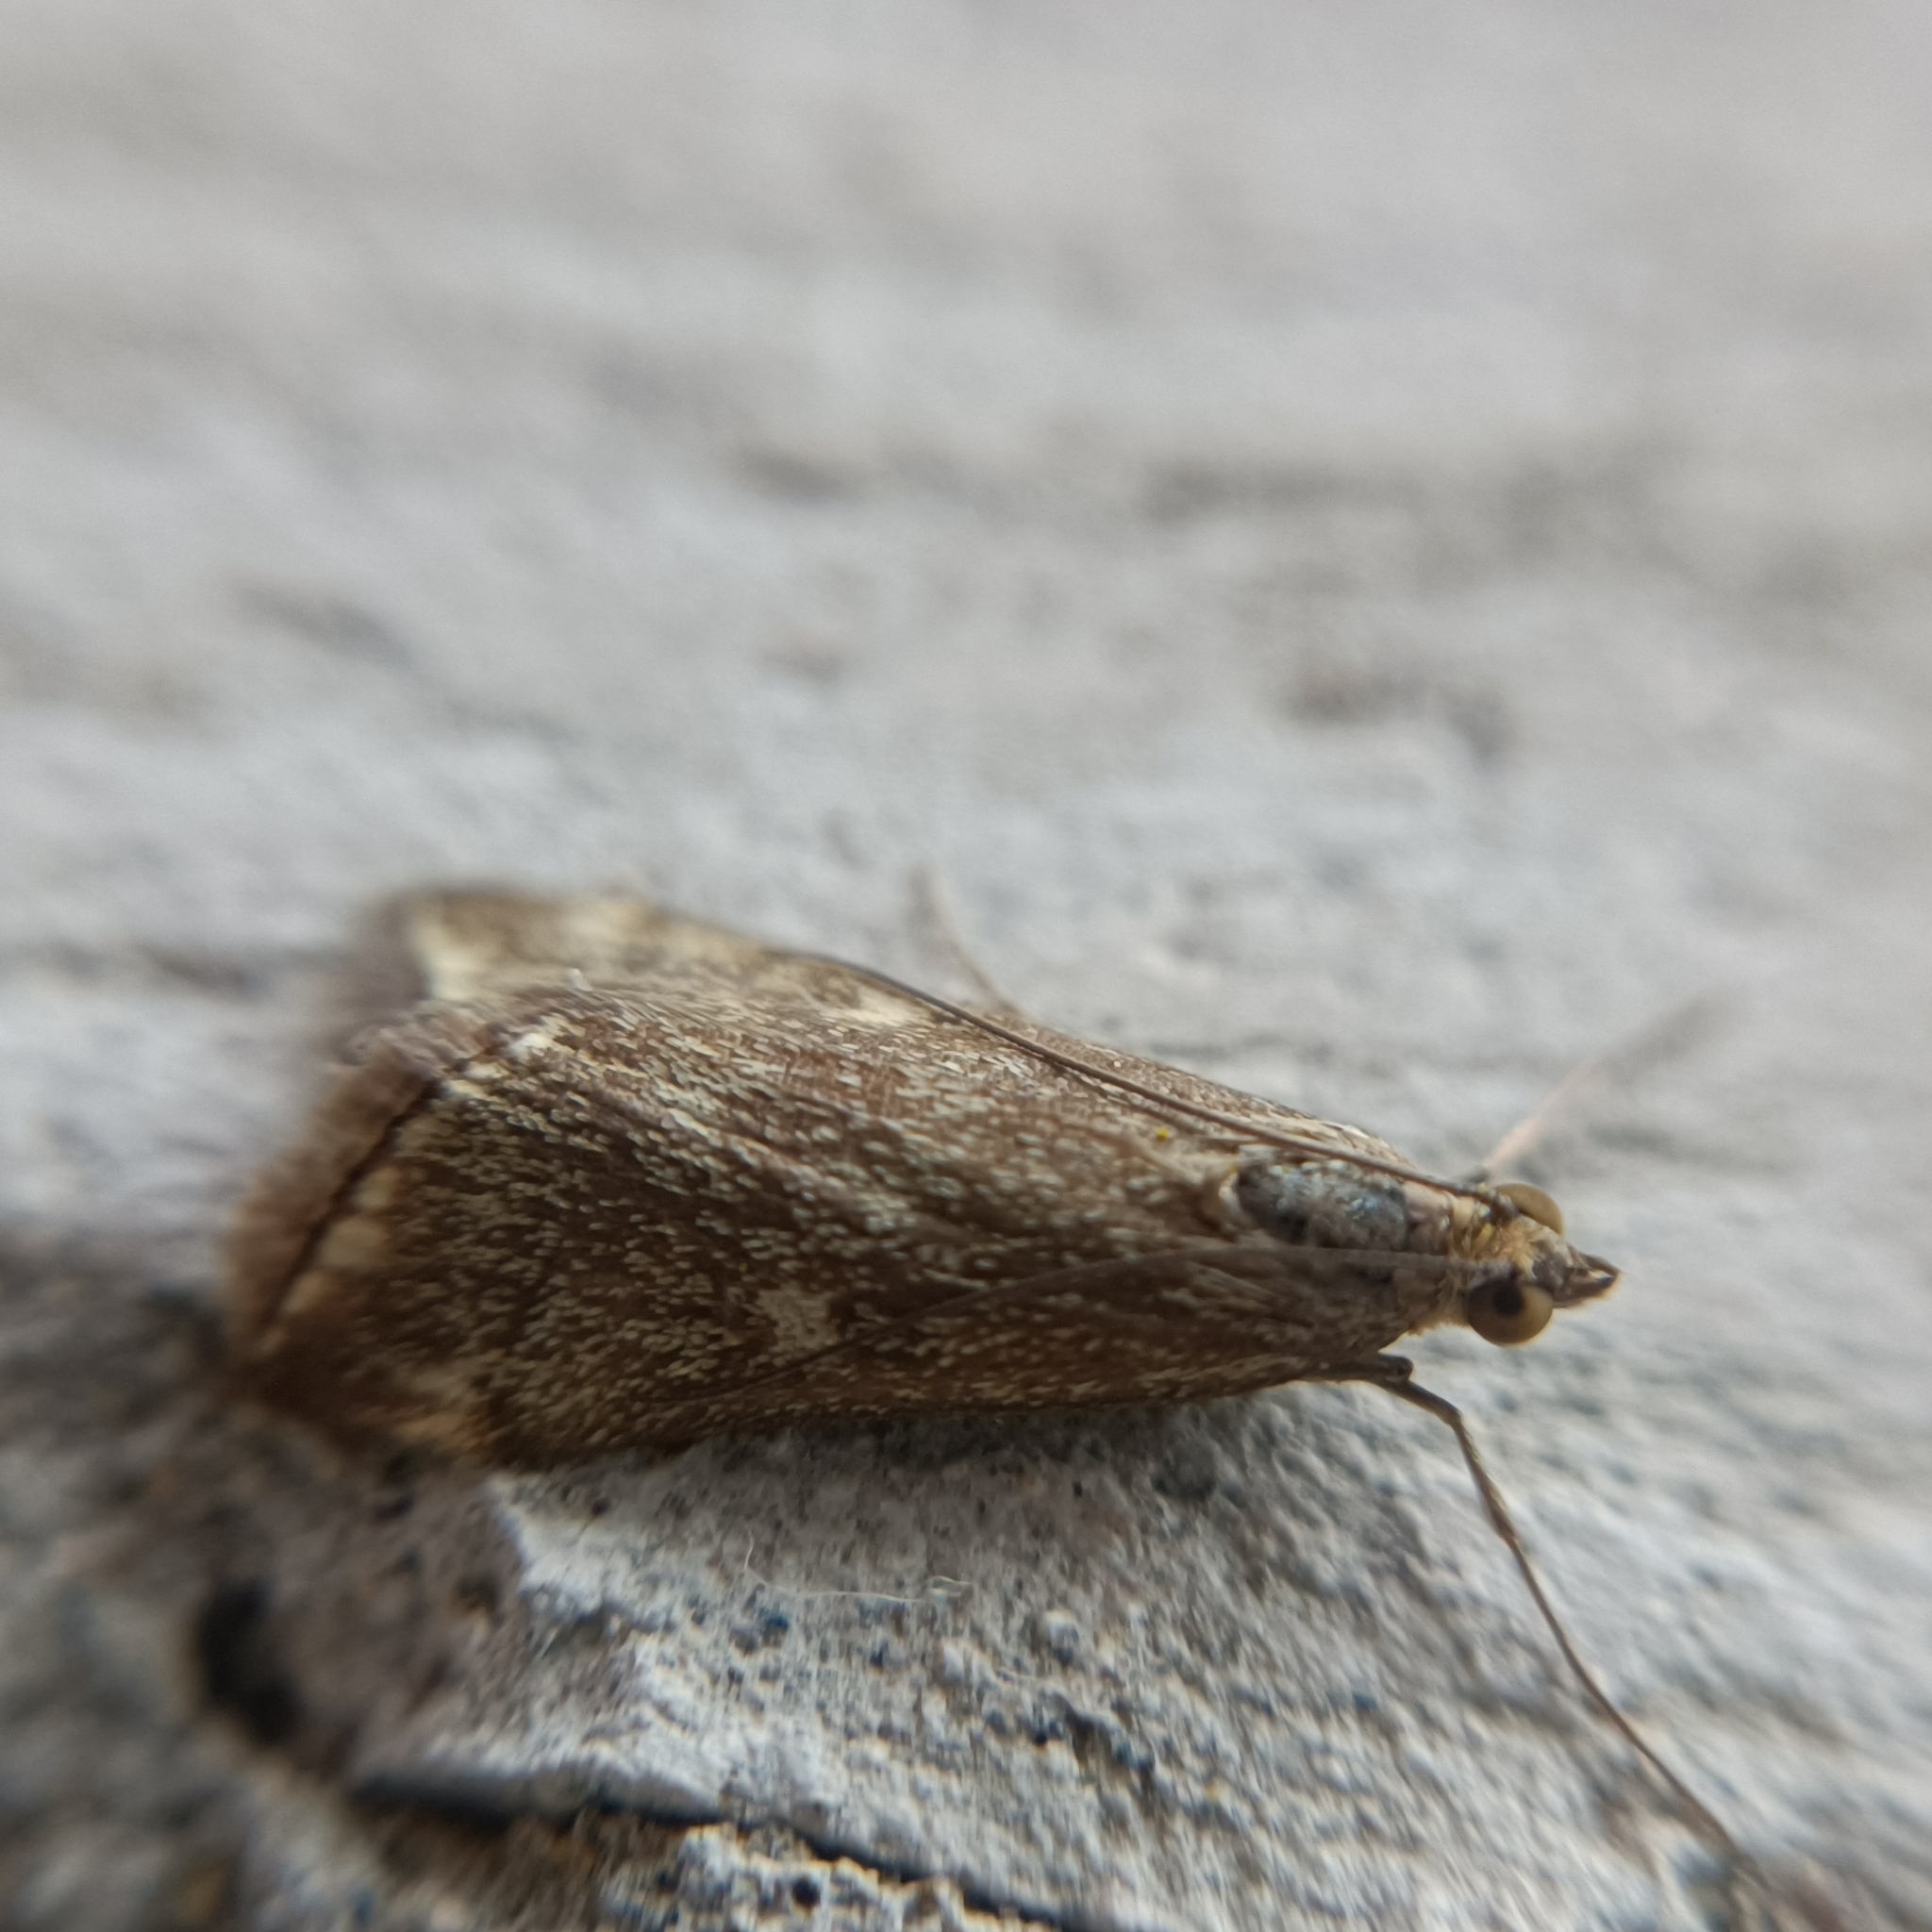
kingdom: Animalia
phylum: Arthropoda
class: Insecta
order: Lepidoptera
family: Crambidae
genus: Loxostege
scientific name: Loxostege sticticalis
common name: Crambid moth
